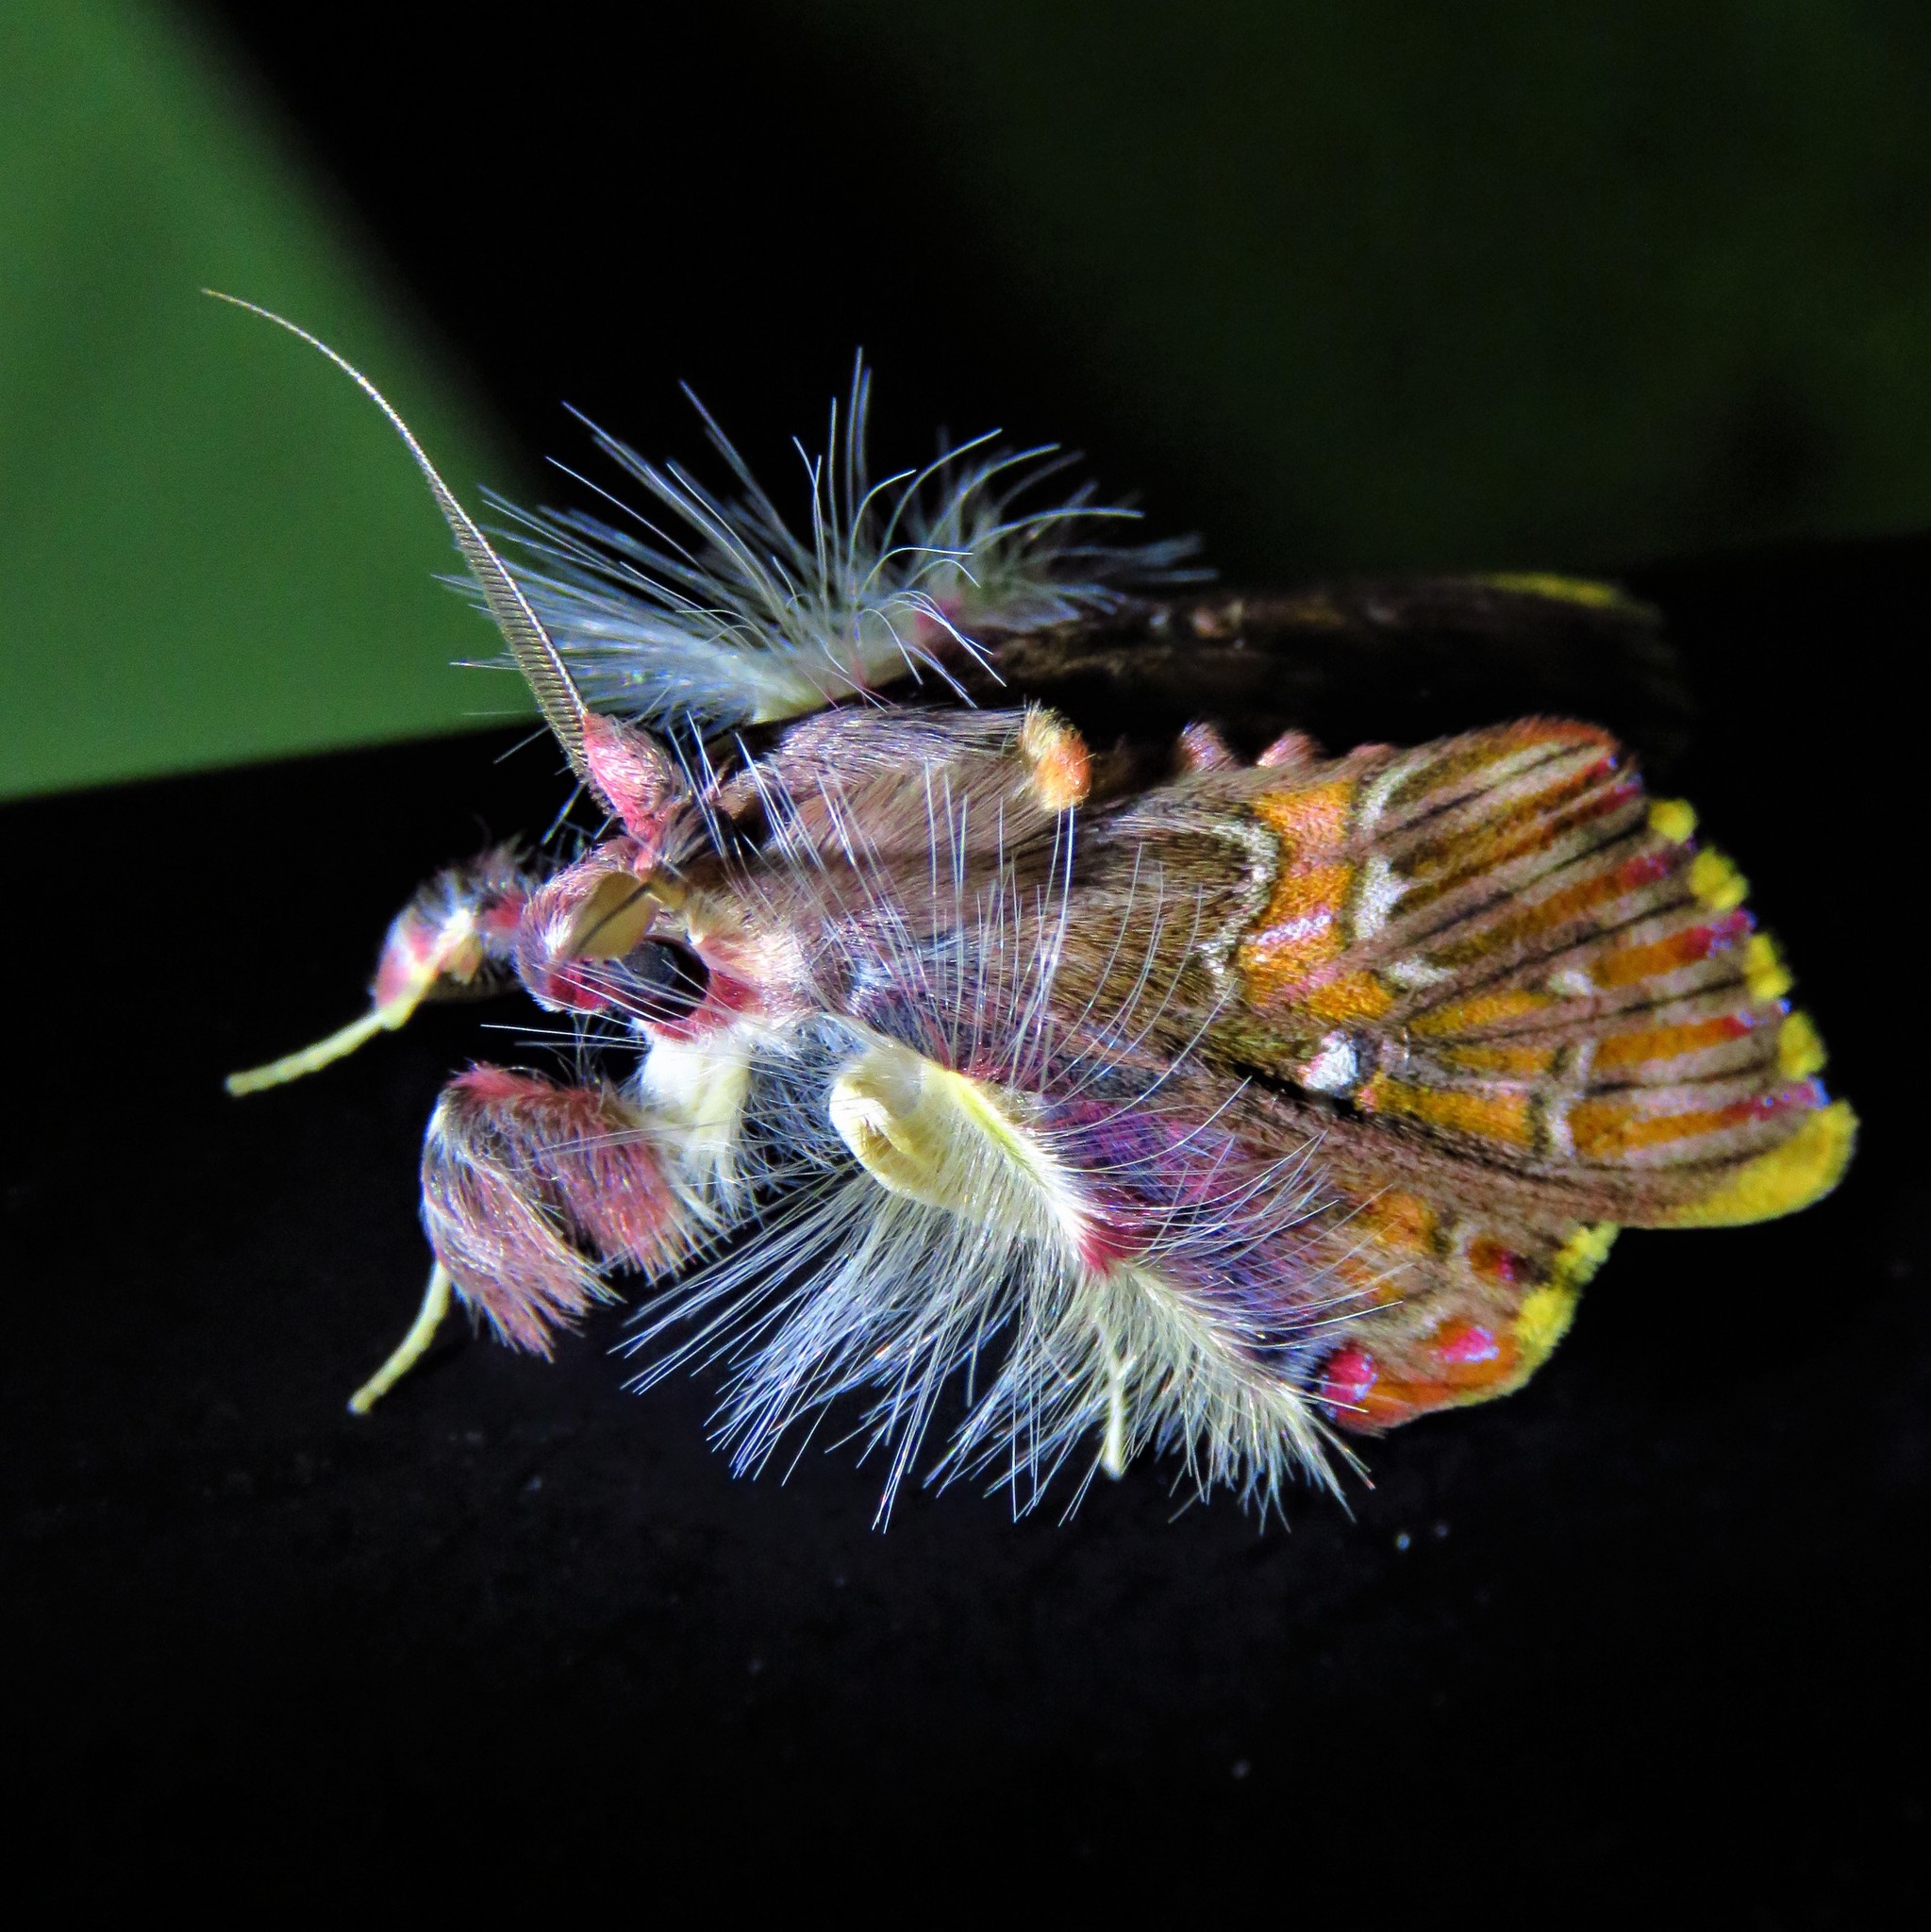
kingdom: Animalia
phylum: Arthropoda
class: Insecta
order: Lepidoptera
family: Erebidae
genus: Sosxetra
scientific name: Sosxetra grata
